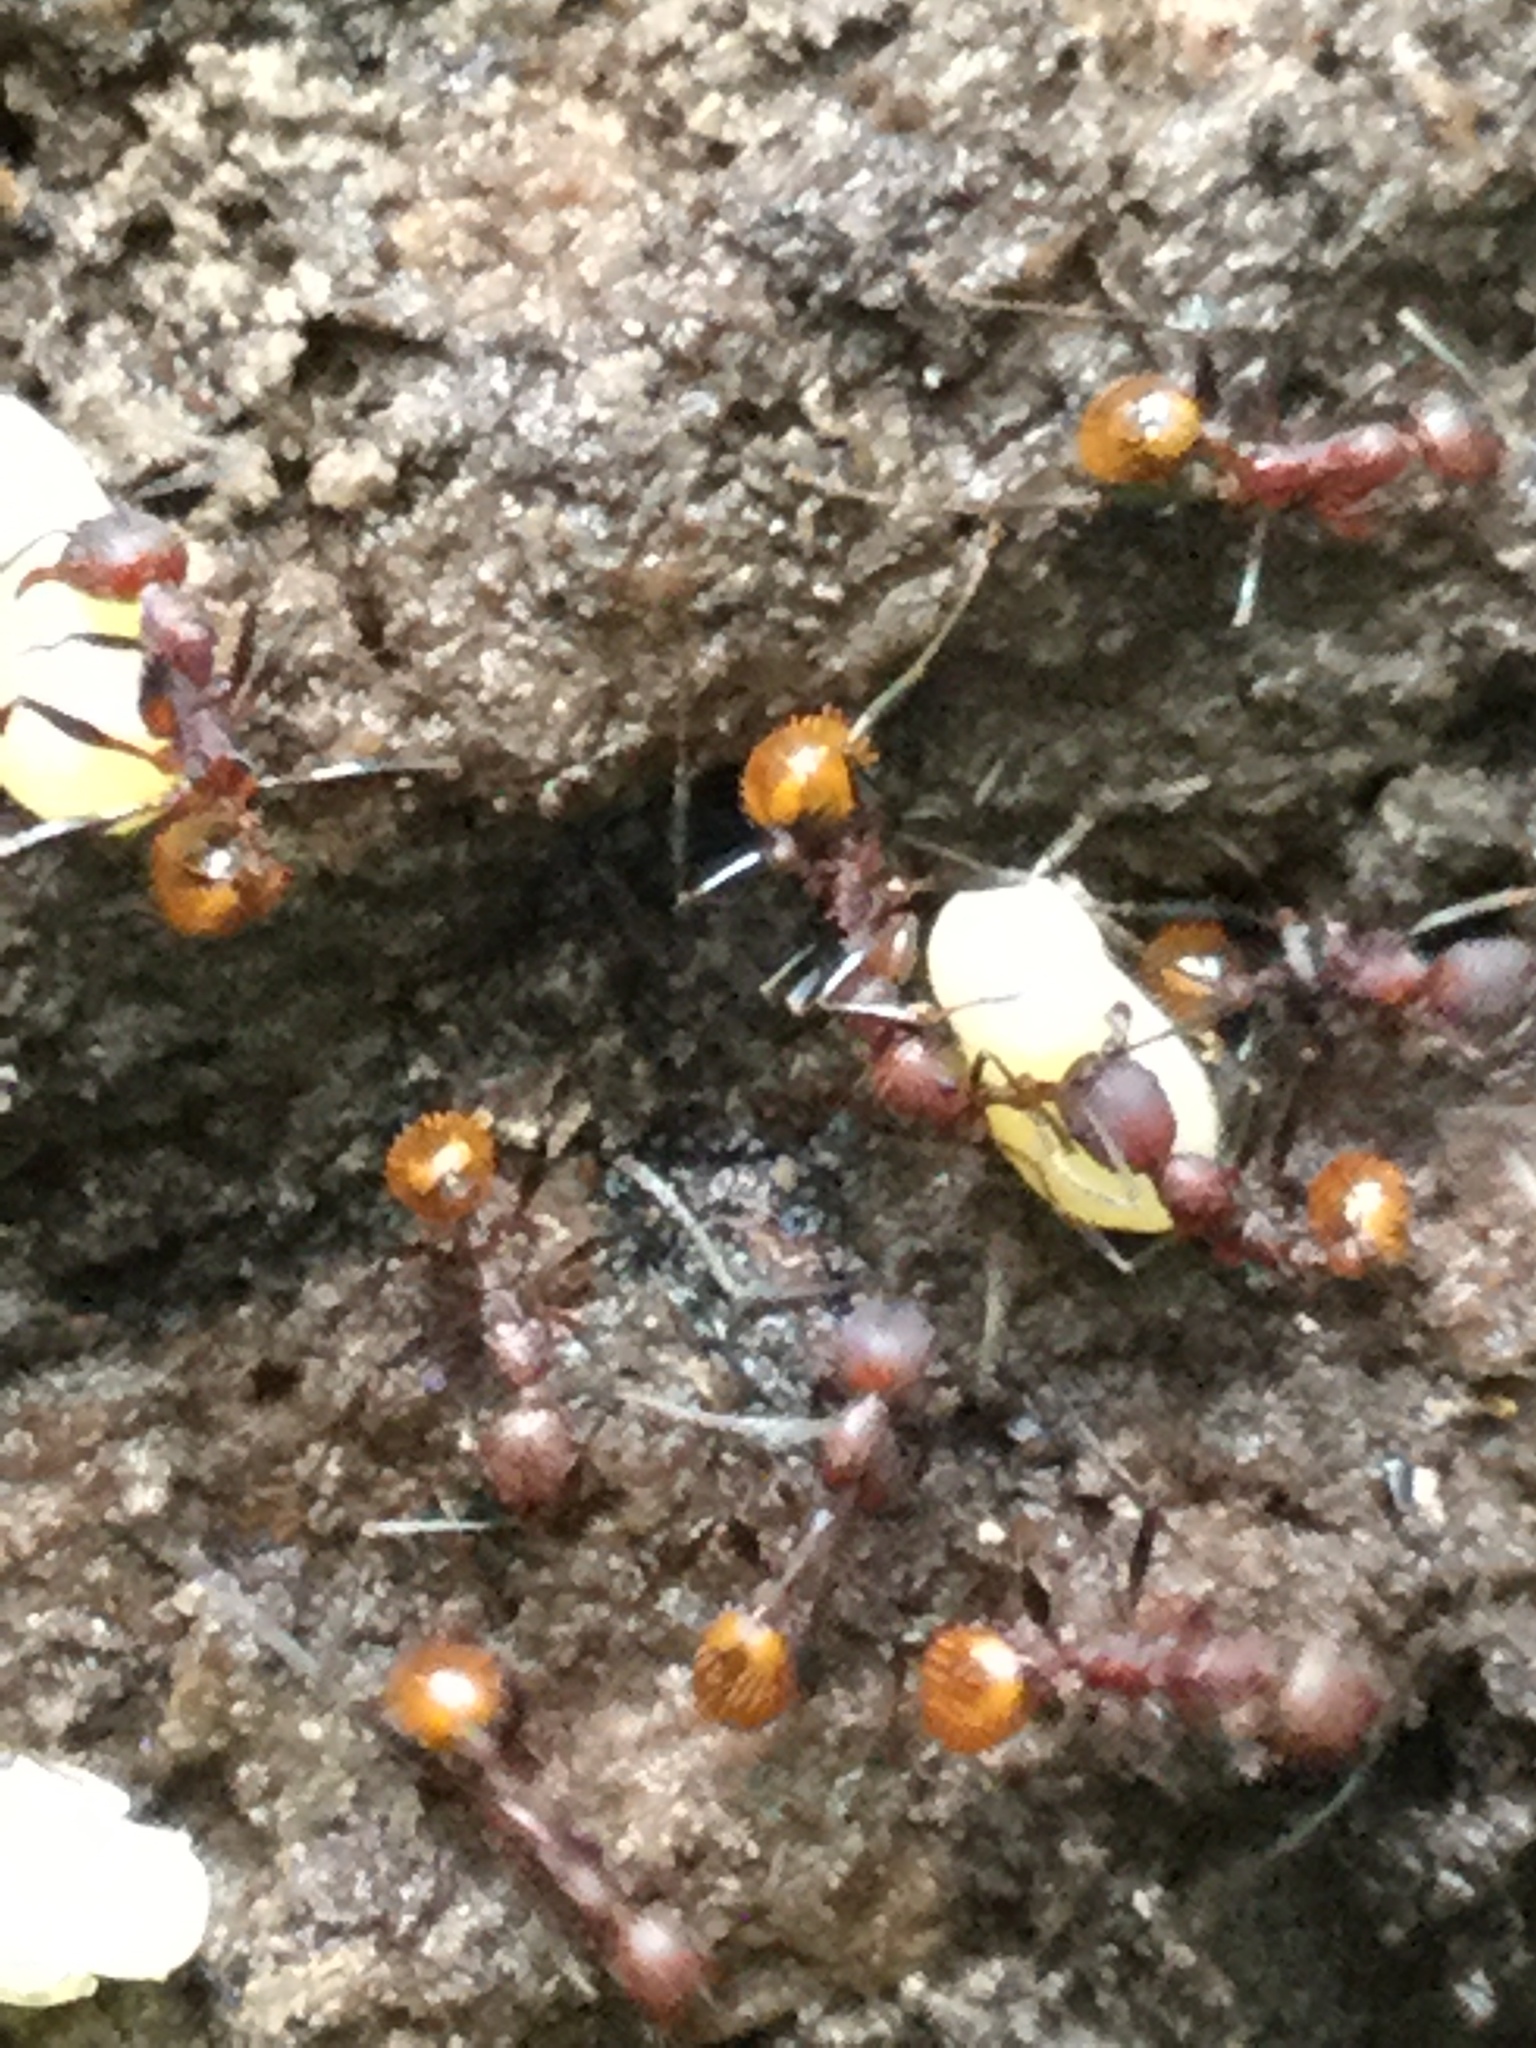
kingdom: Animalia
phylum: Arthropoda
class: Insecta
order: Hymenoptera
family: Formicidae
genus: Aphaenogaster
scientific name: Aphaenogaster lamellidens
